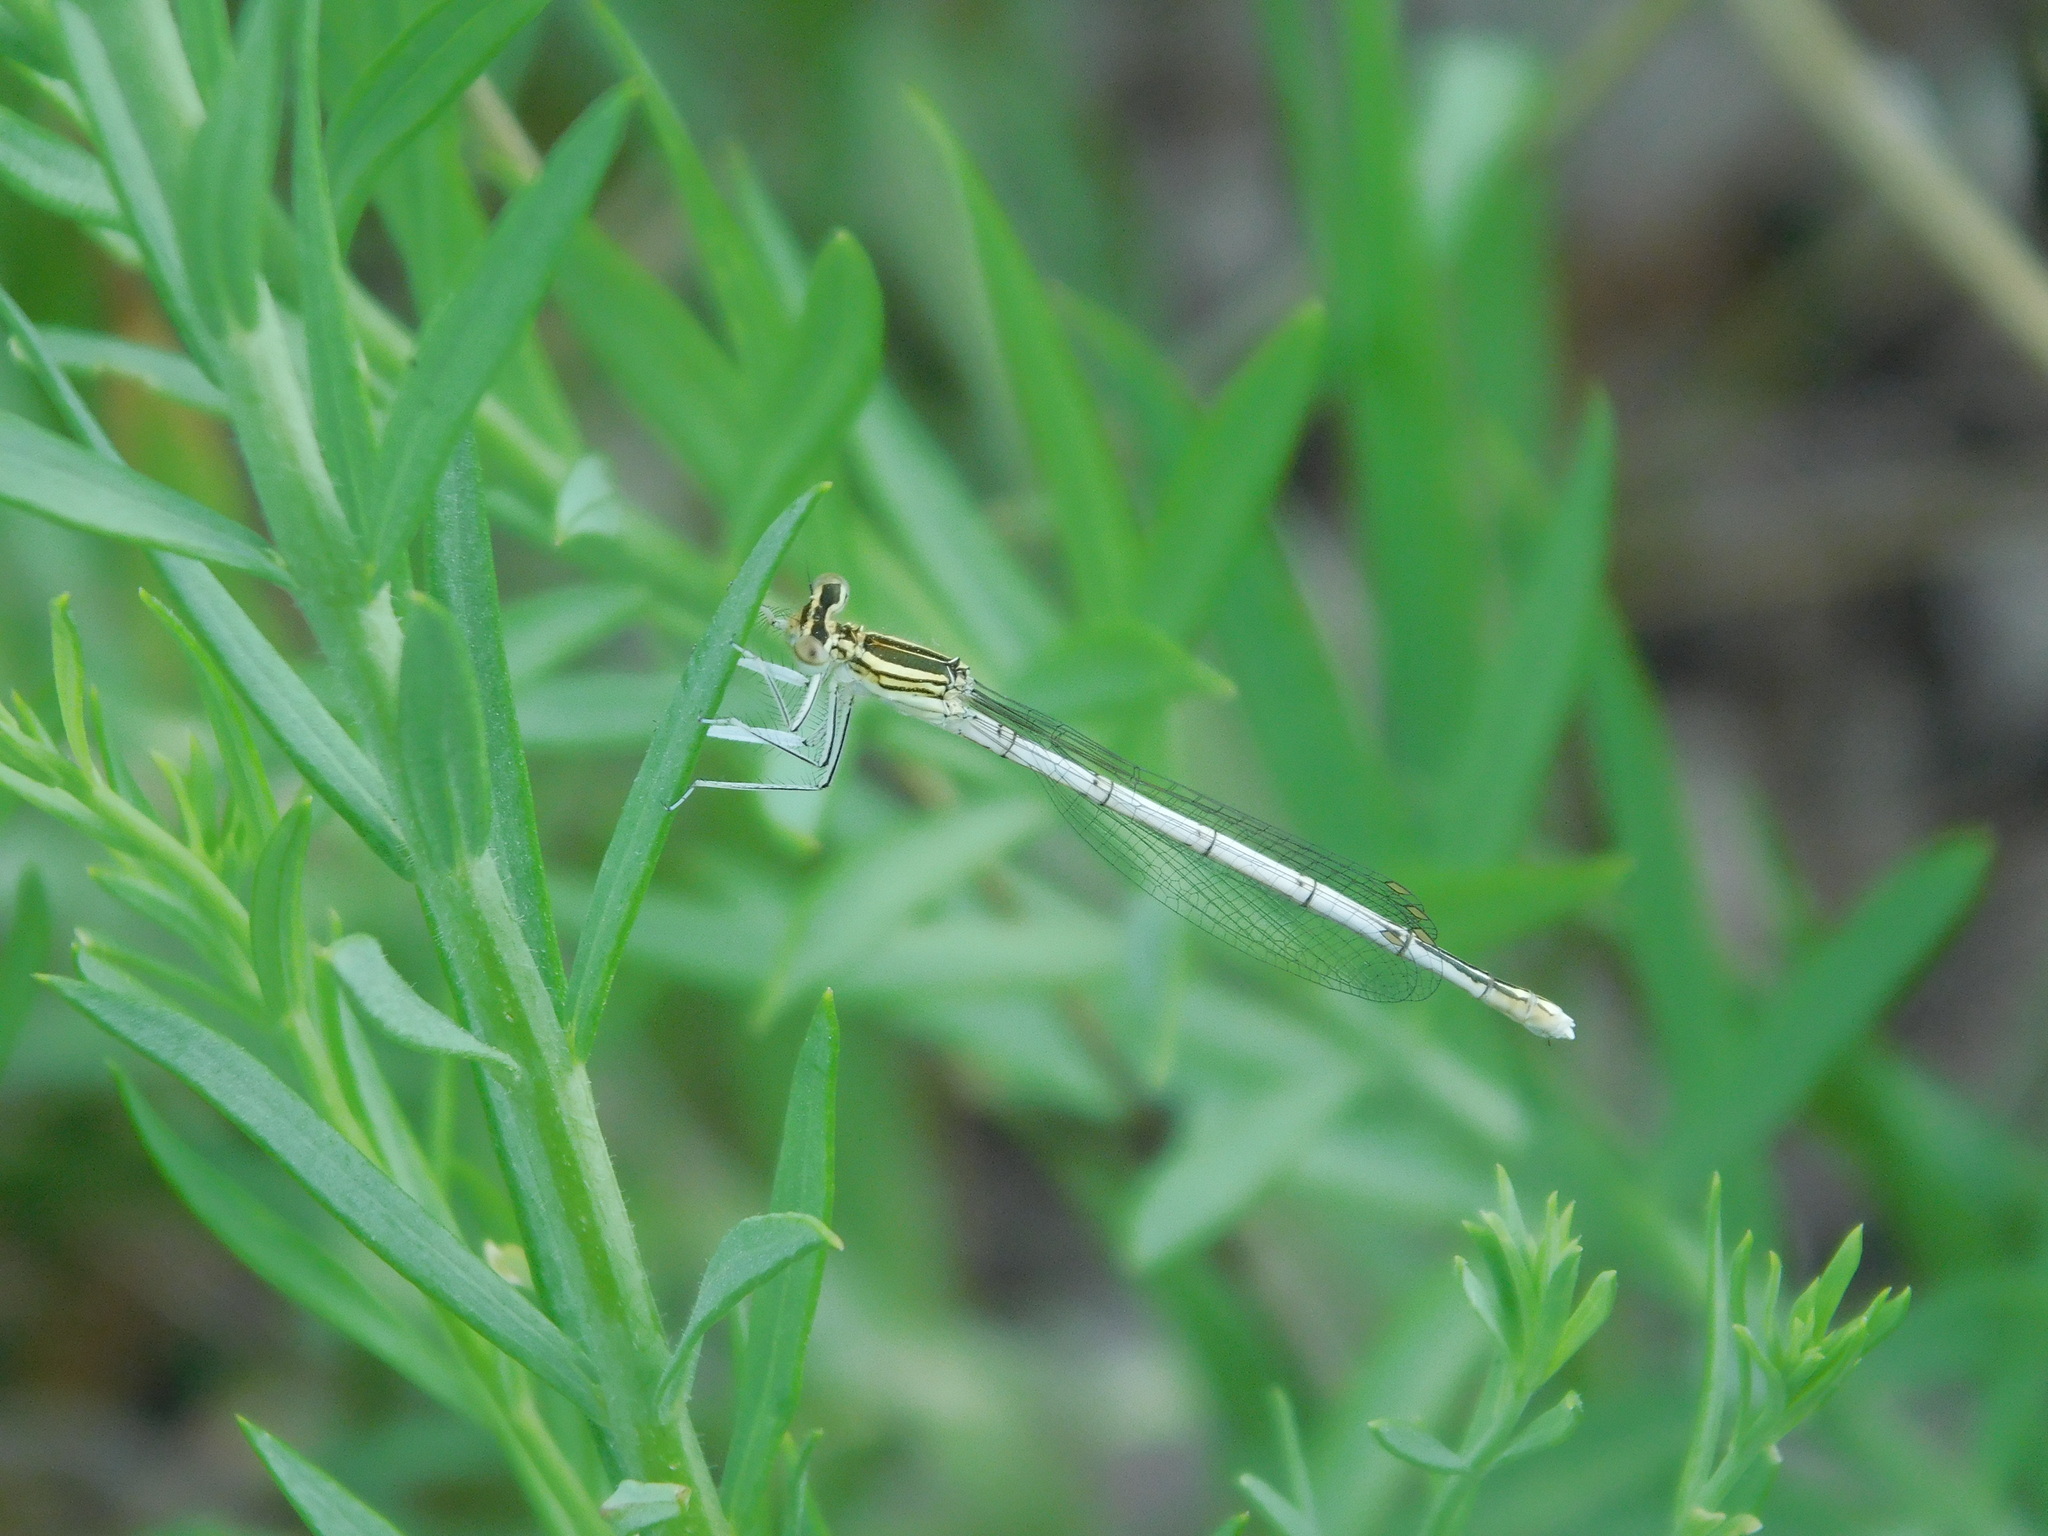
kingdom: Animalia
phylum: Arthropoda
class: Insecta
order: Odonata
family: Platycnemididae
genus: Platycnemis
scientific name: Platycnemis pennipes
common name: White-legged damselfly
